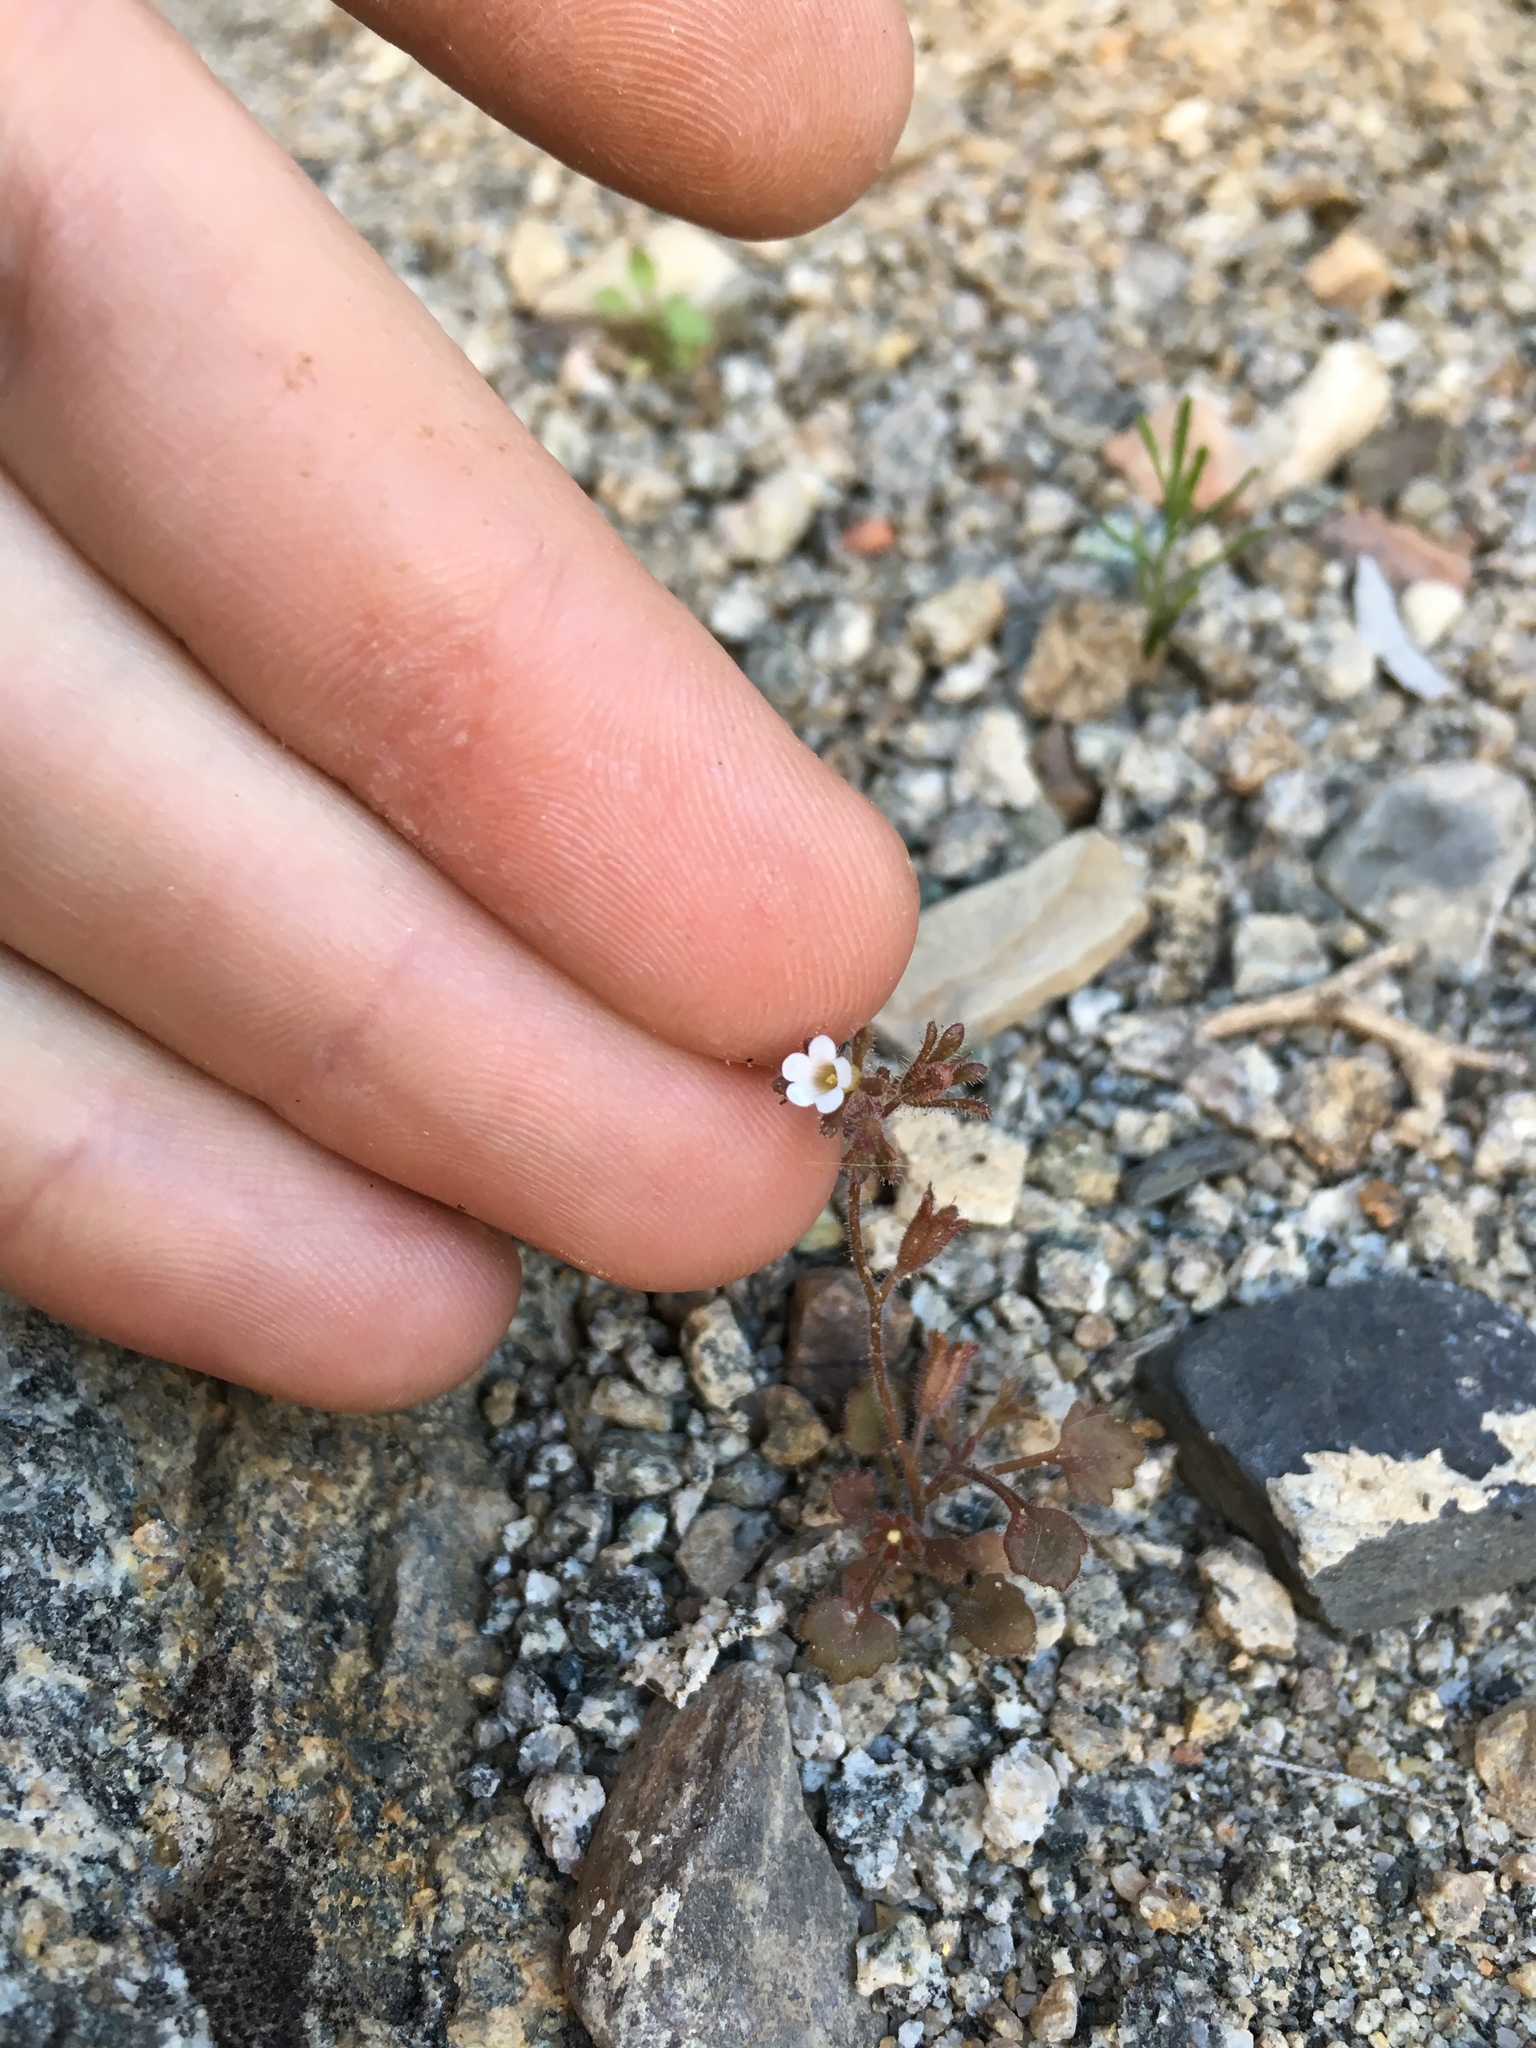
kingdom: Plantae
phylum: Tracheophyta
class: Magnoliopsida
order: Boraginales
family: Hydrophyllaceae
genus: Phacelia
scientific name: Phacelia rotundifolia
